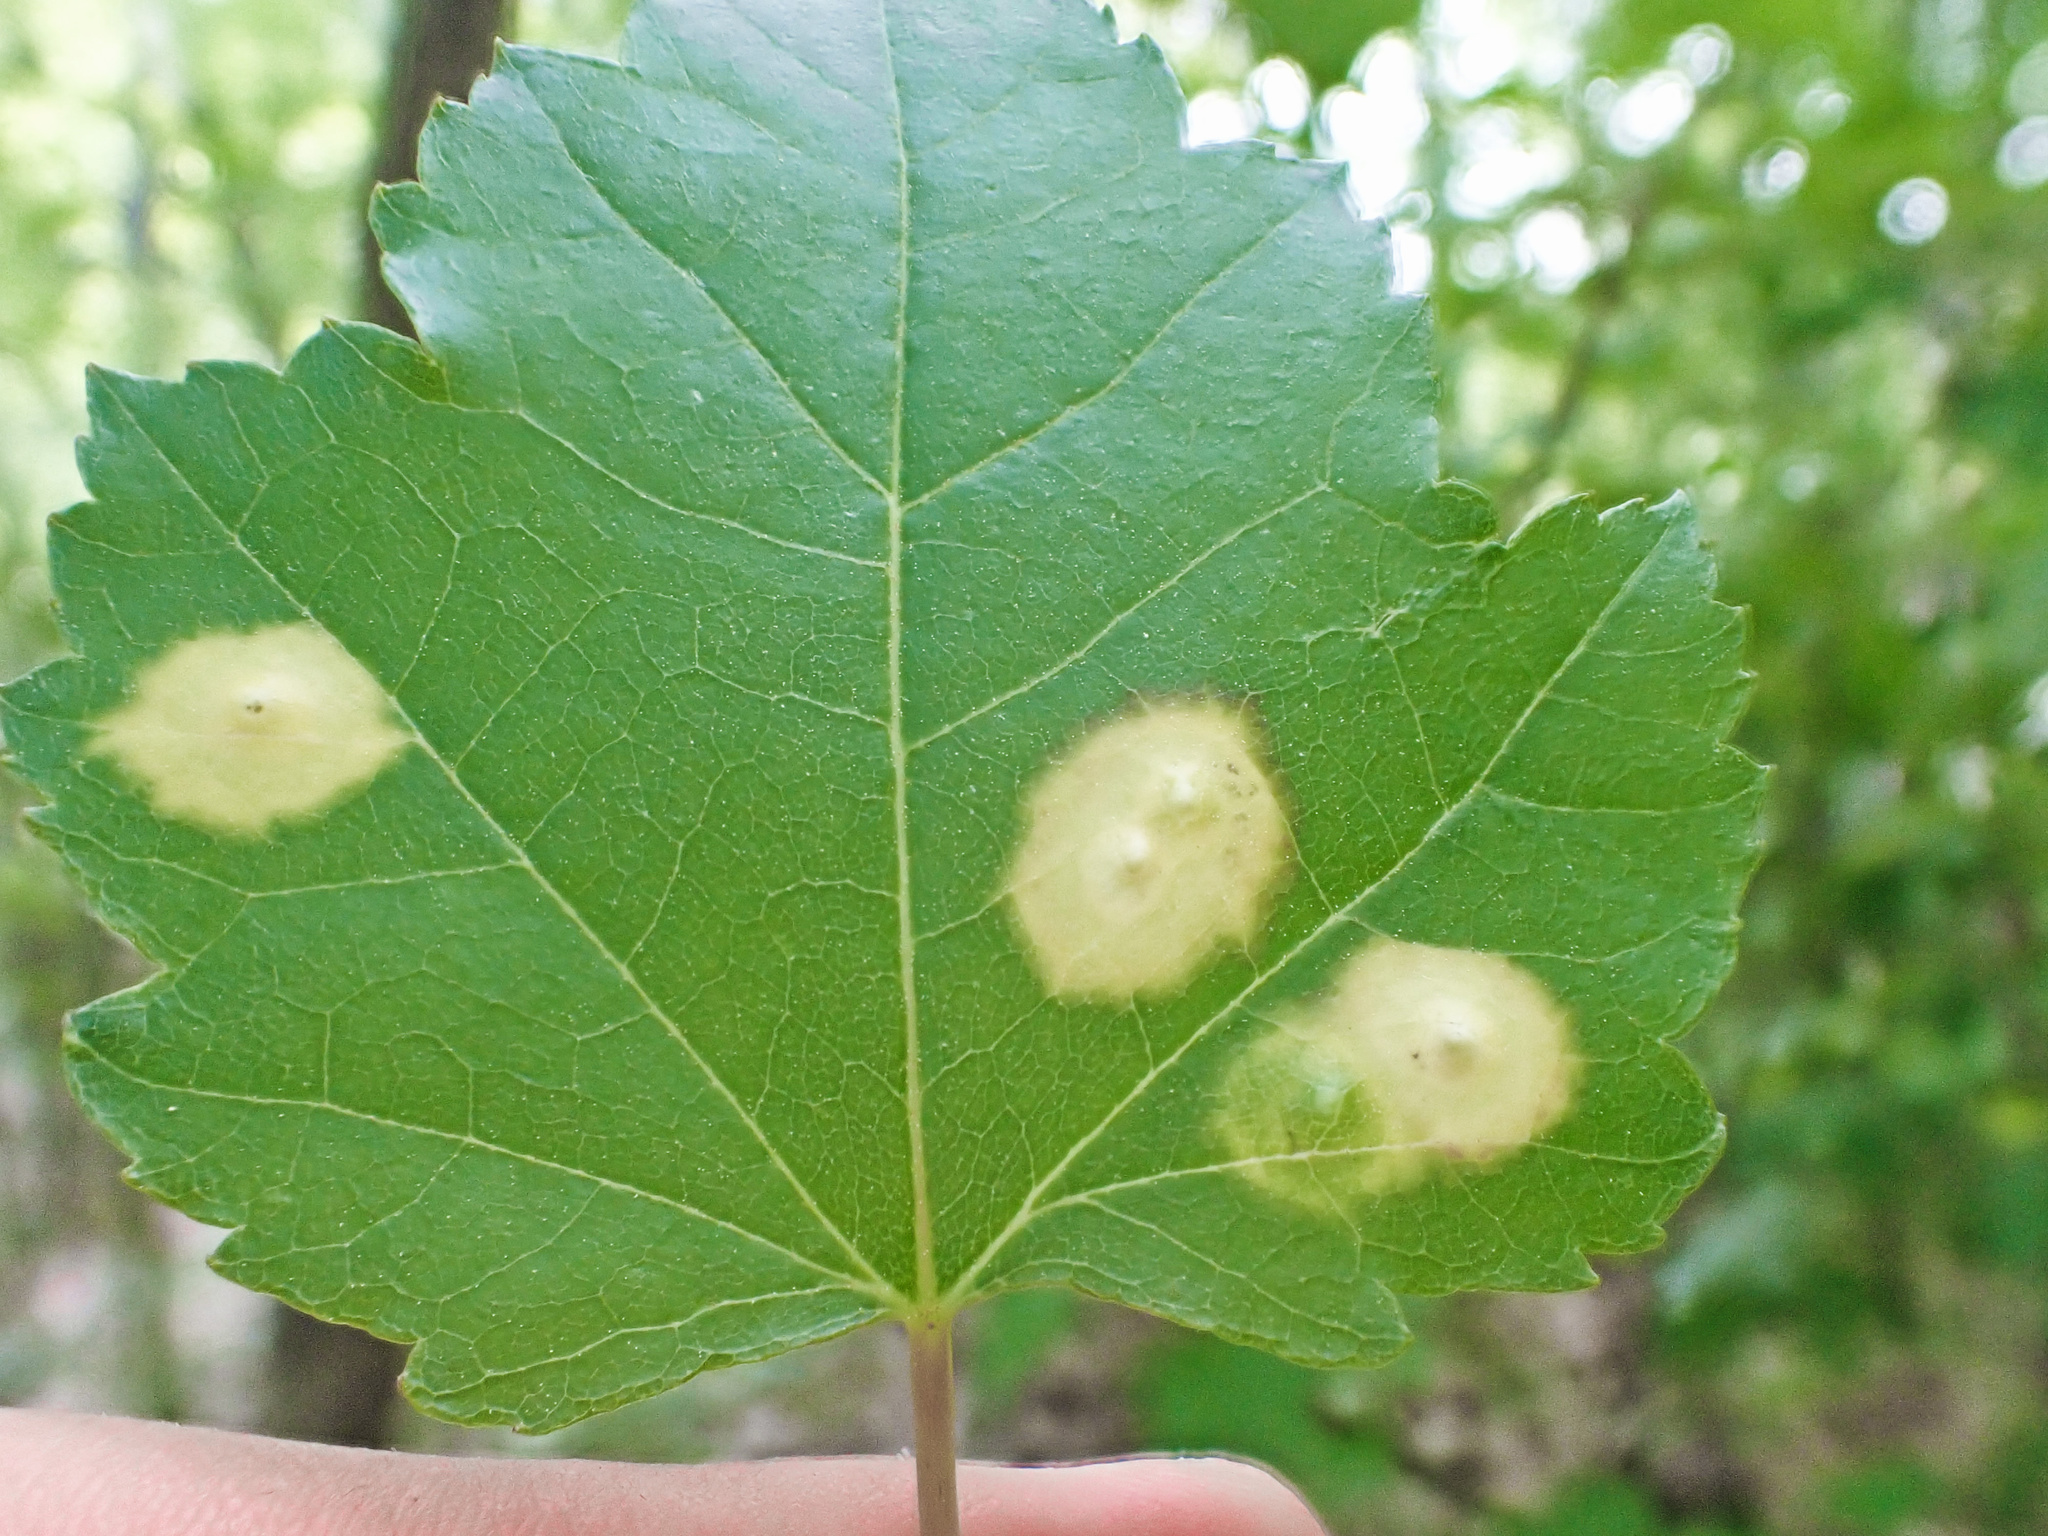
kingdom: Animalia
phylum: Arthropoda
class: Insecta
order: Diptera
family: Cecidomyiidae
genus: Acericecis
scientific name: Acericecis ocellaris
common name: Ocellate gall midge
